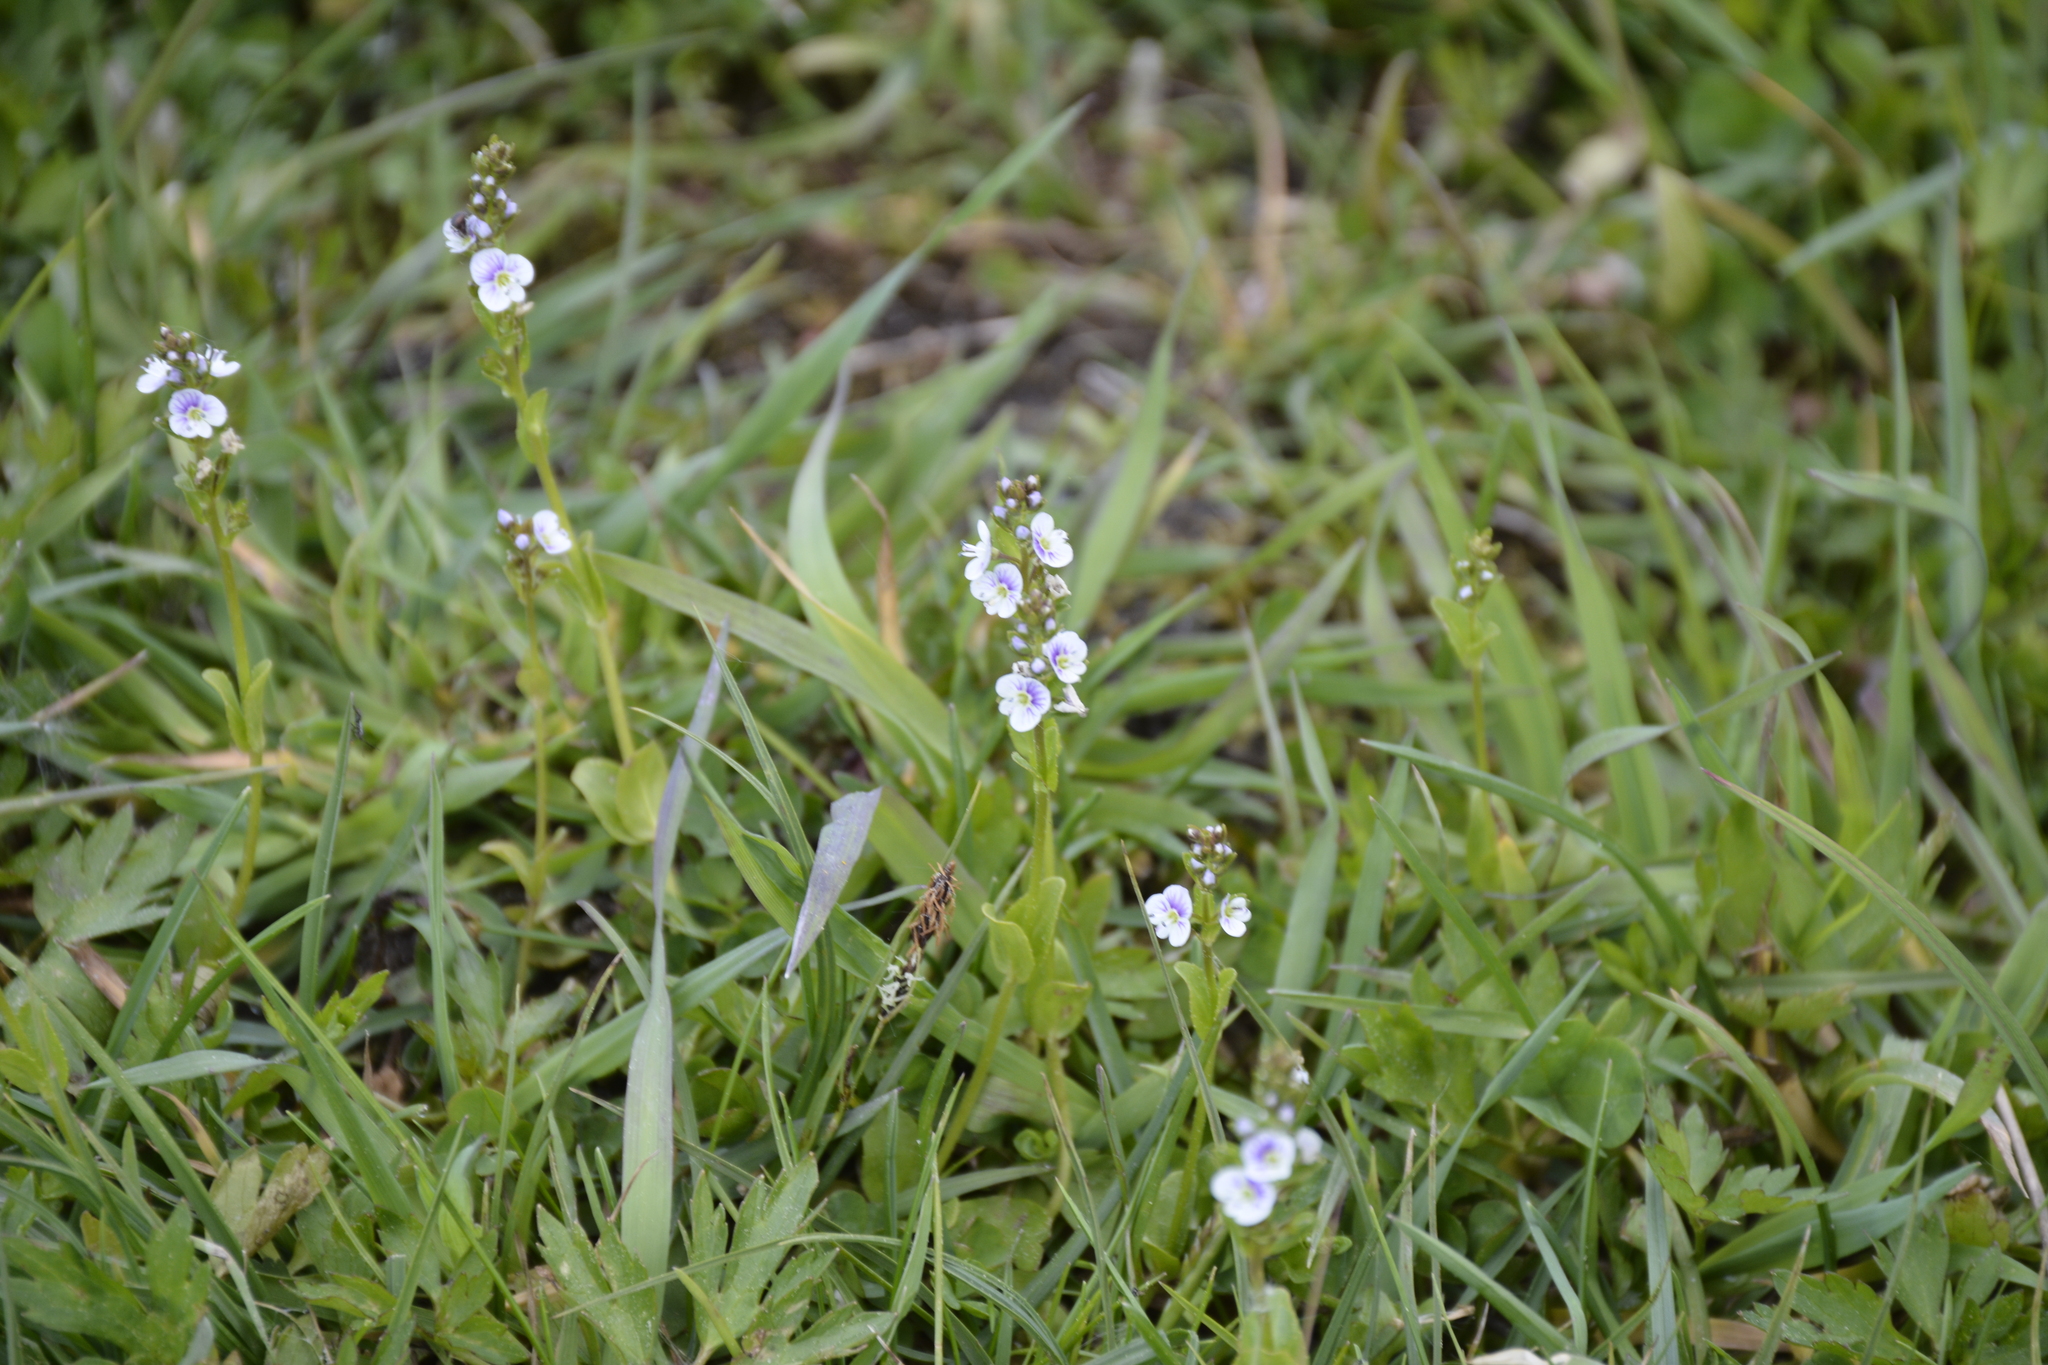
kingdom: Plantae
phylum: Tracheophyta
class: Magnoliopsida
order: Lamiales
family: Plantaginaceae
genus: Veronica
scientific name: Veronica serpyllifolia
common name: Thyme-leaved speedwell
